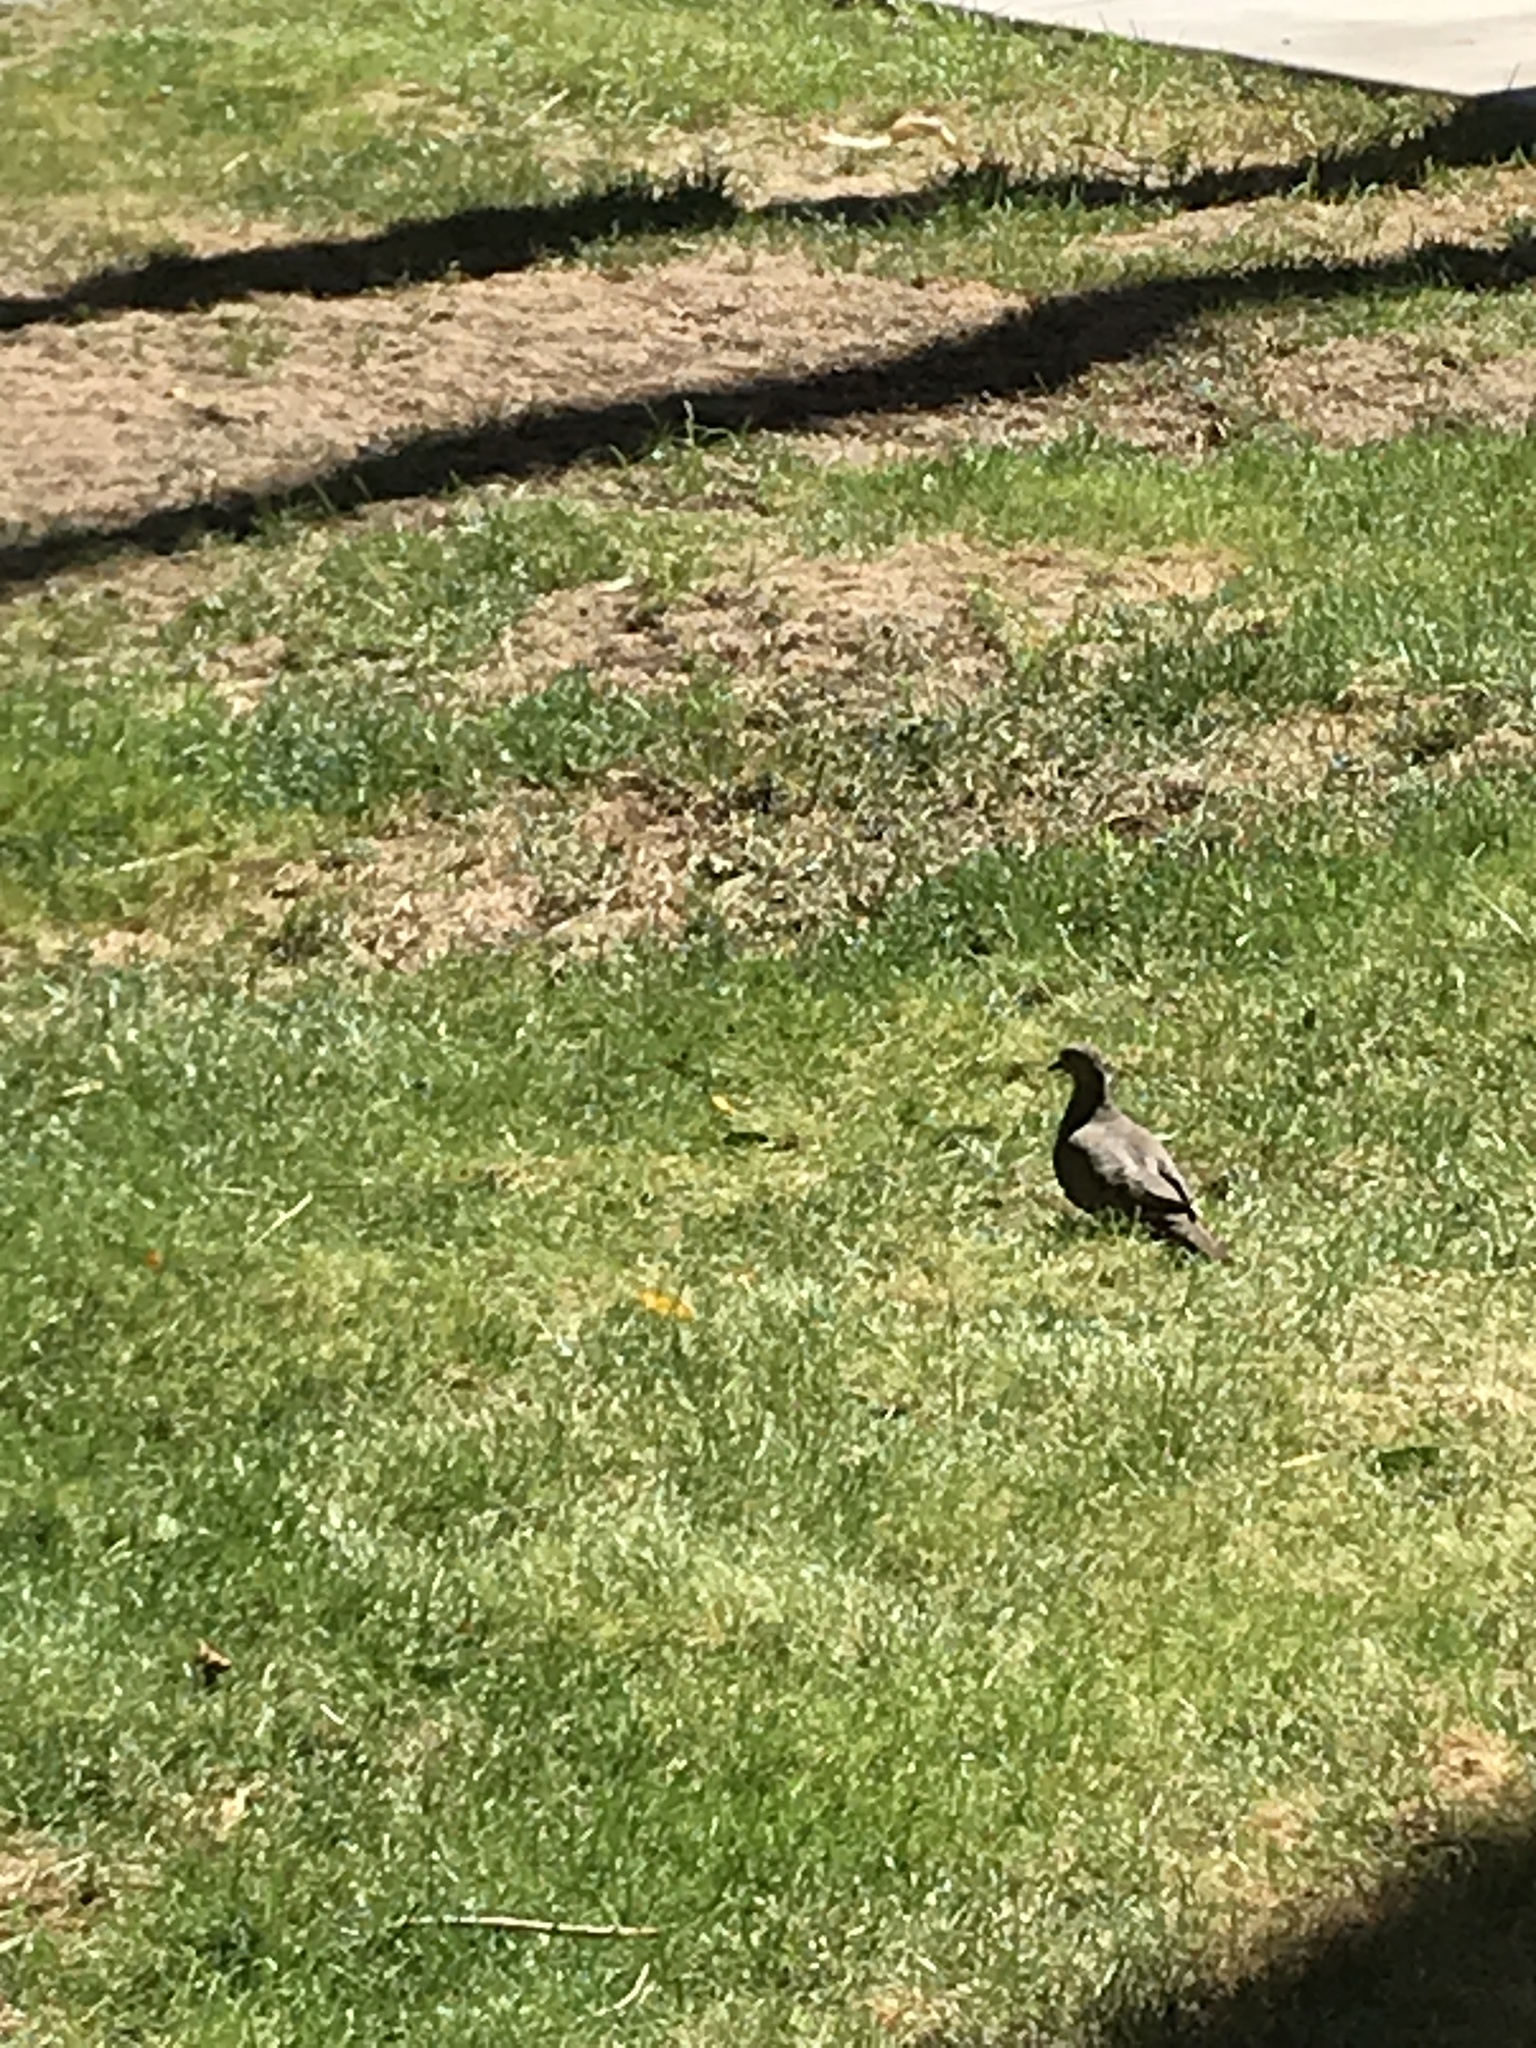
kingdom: Animalia
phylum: Chordata
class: Aves
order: Columbiformes
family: Columbidae
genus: Zenaida
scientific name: Zenaida macroura
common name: Mourning dove
